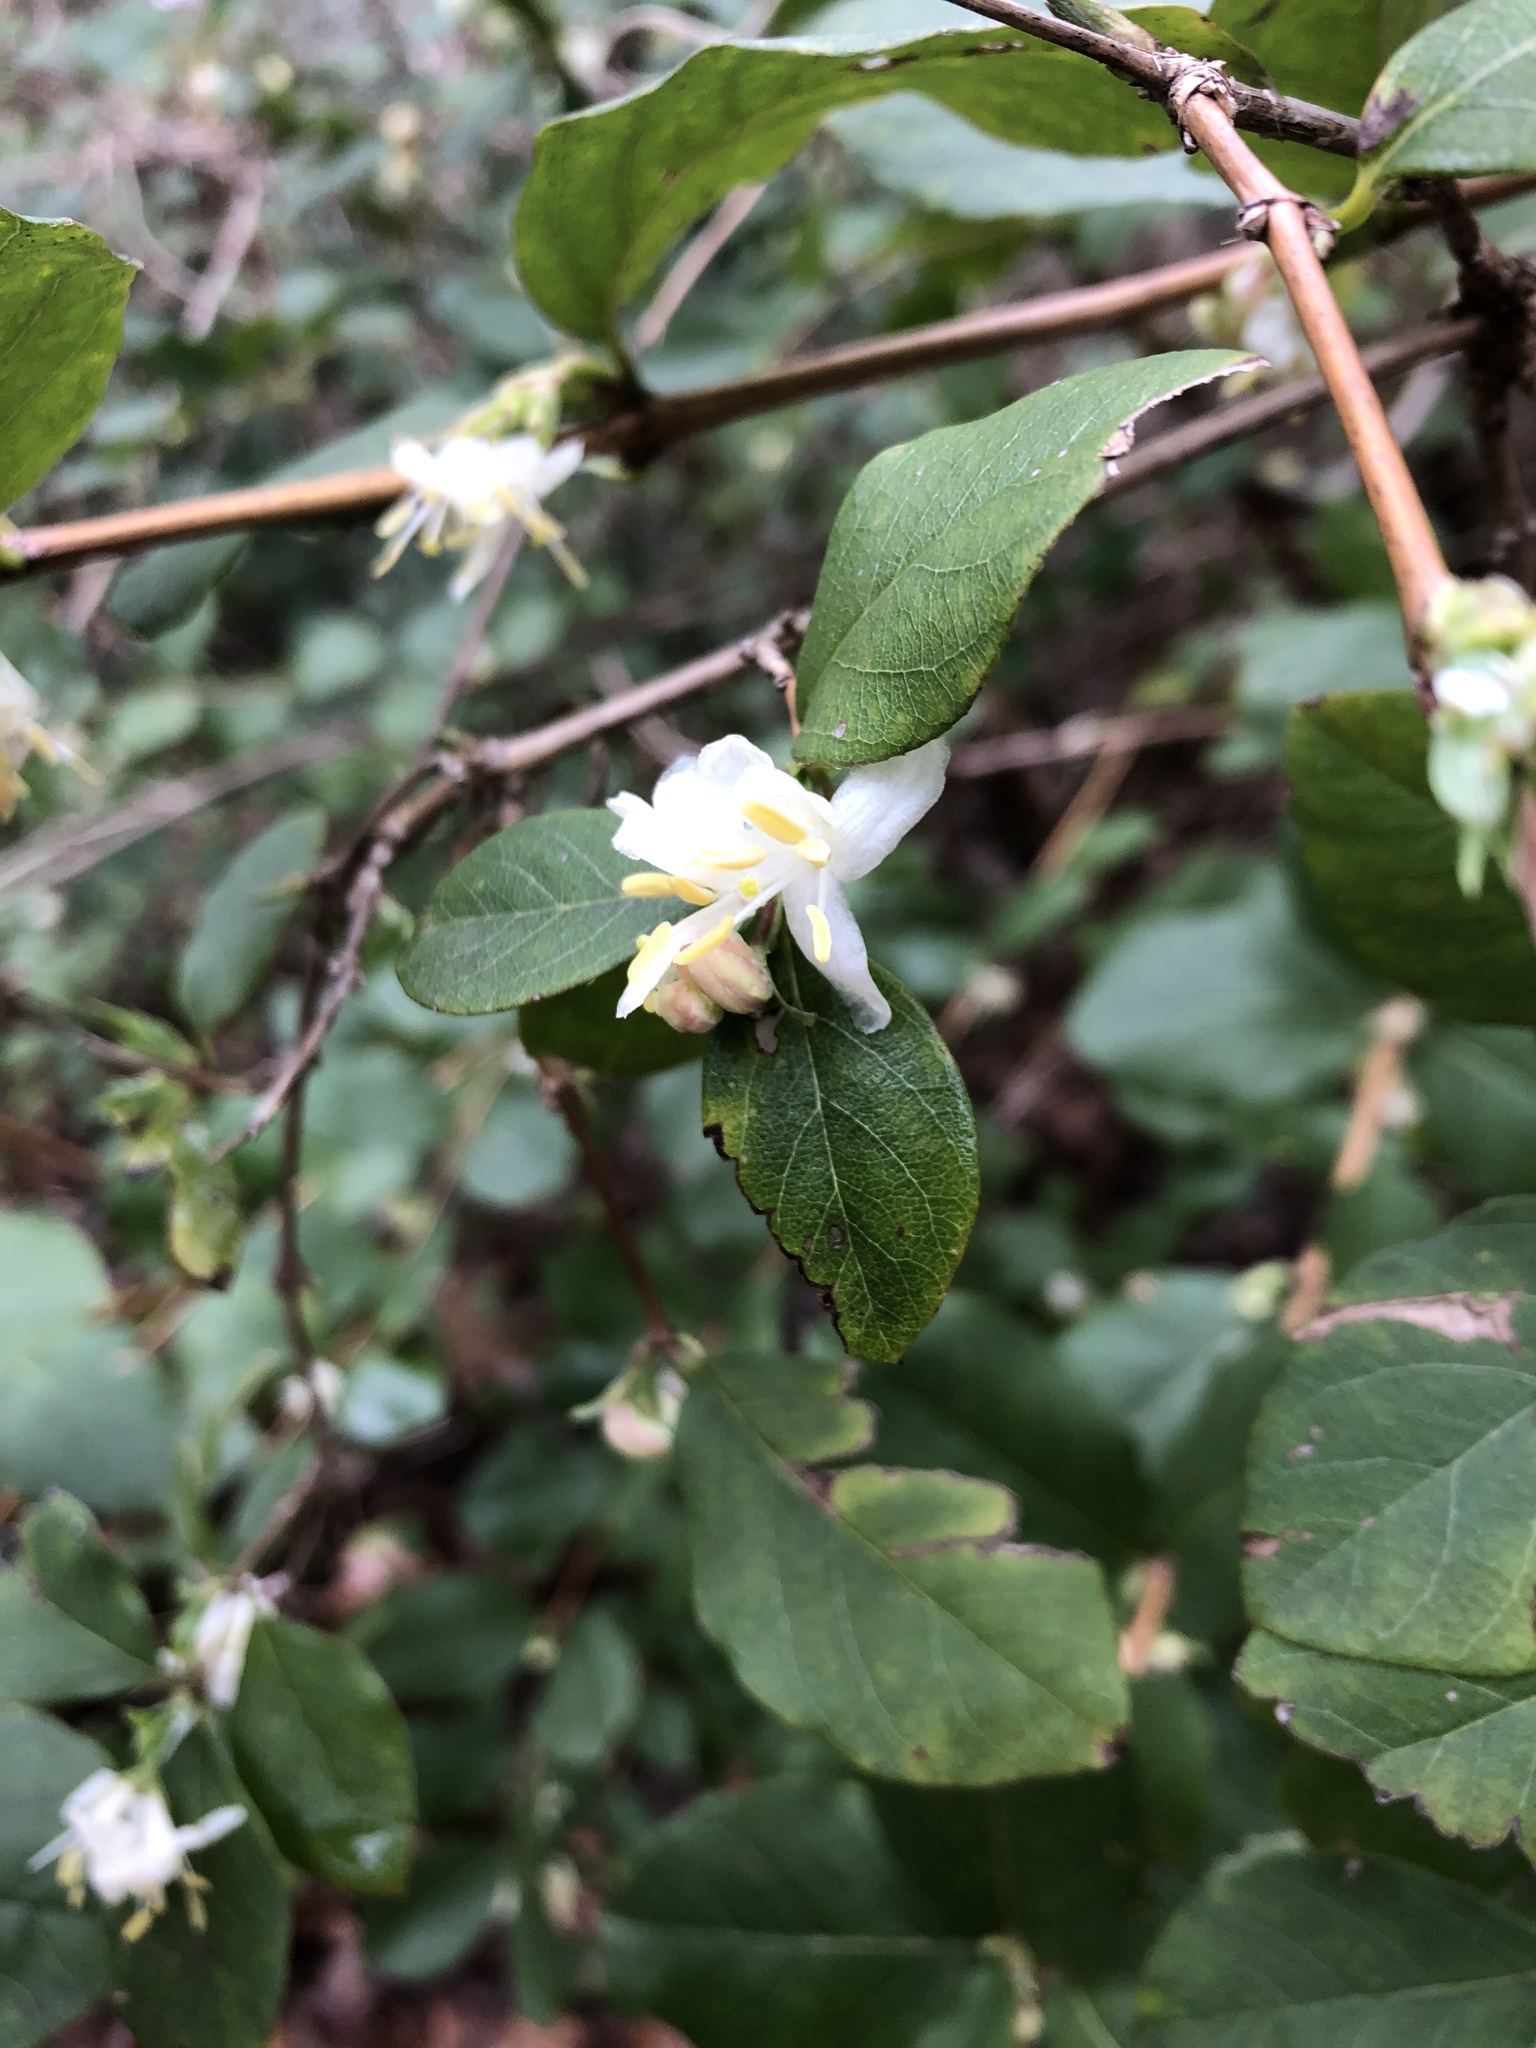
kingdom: Plantae
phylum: Tracheophyta
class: Magnoliopsida
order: Dipsacales
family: Caprifoliaceae
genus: Lonicera
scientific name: Lonicera fragrantissima
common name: Fragrant honeysuckle
